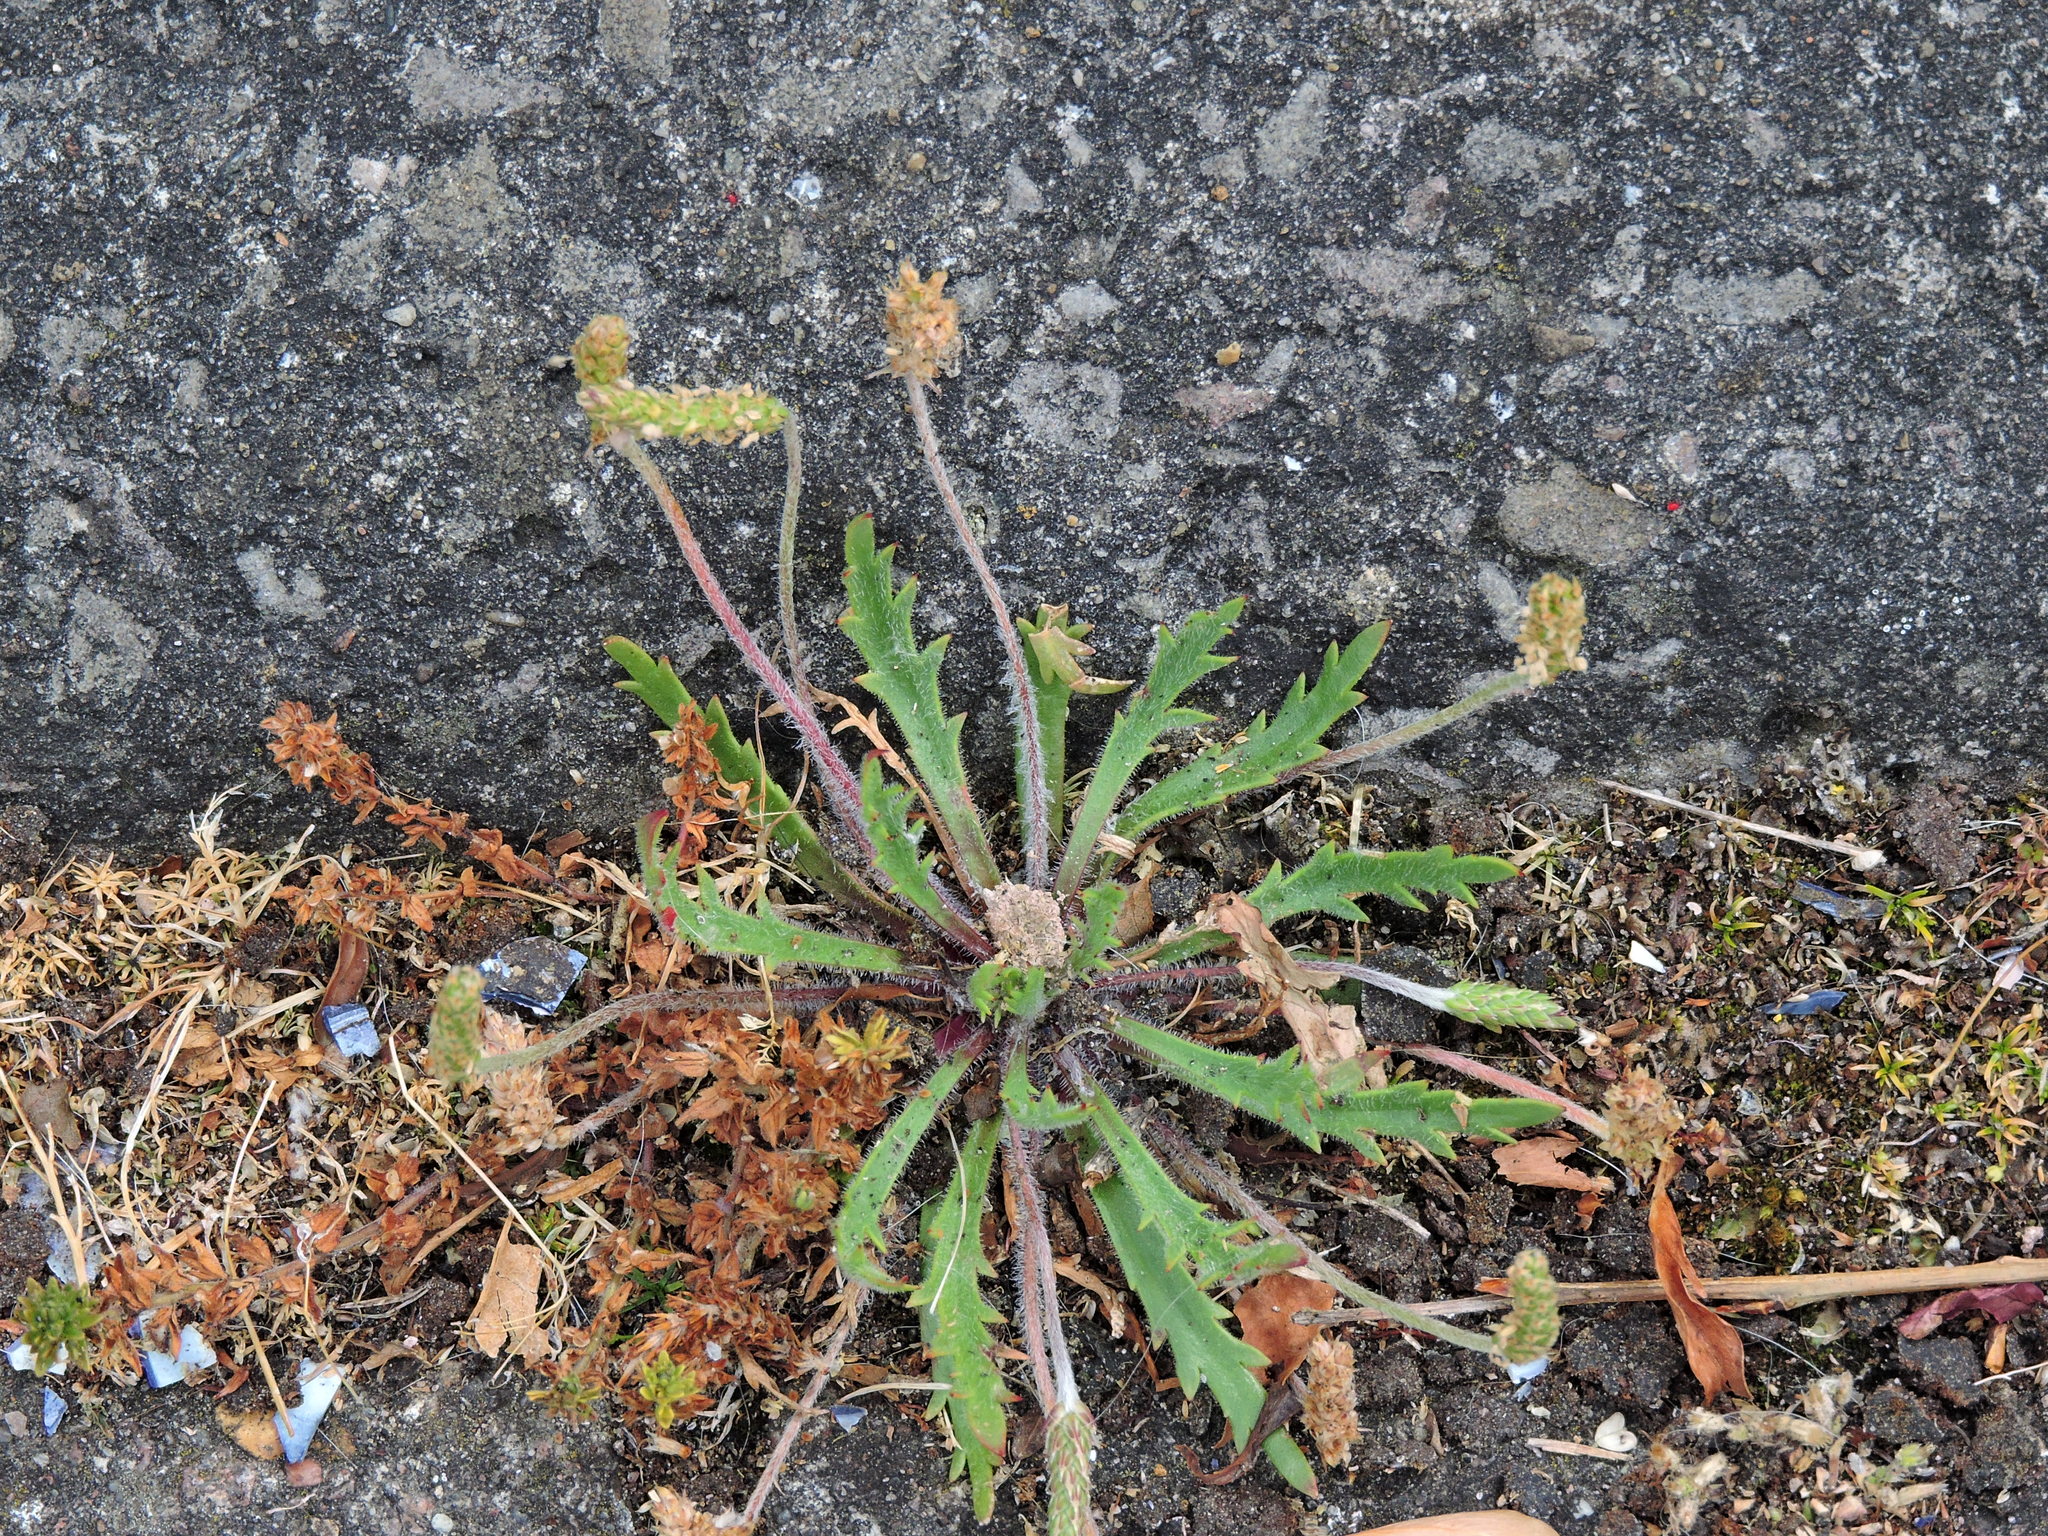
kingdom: Plantae
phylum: Tracheophyta
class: Magnoliopsida
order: Lamiales
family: Plantaginaceae
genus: Plantago
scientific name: Plantago coronopus
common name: Buck's-horn plantain
